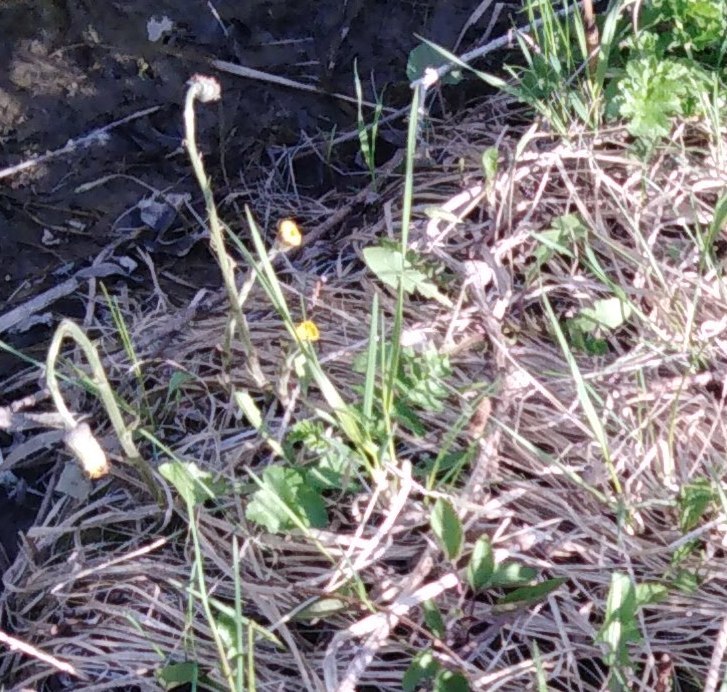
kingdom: Plantae
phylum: Tracheophyta
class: Magnoliopsida
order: Asterales
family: Asteraceae
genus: Tussilago
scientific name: Tussilago farfara
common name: Coltsfoot
